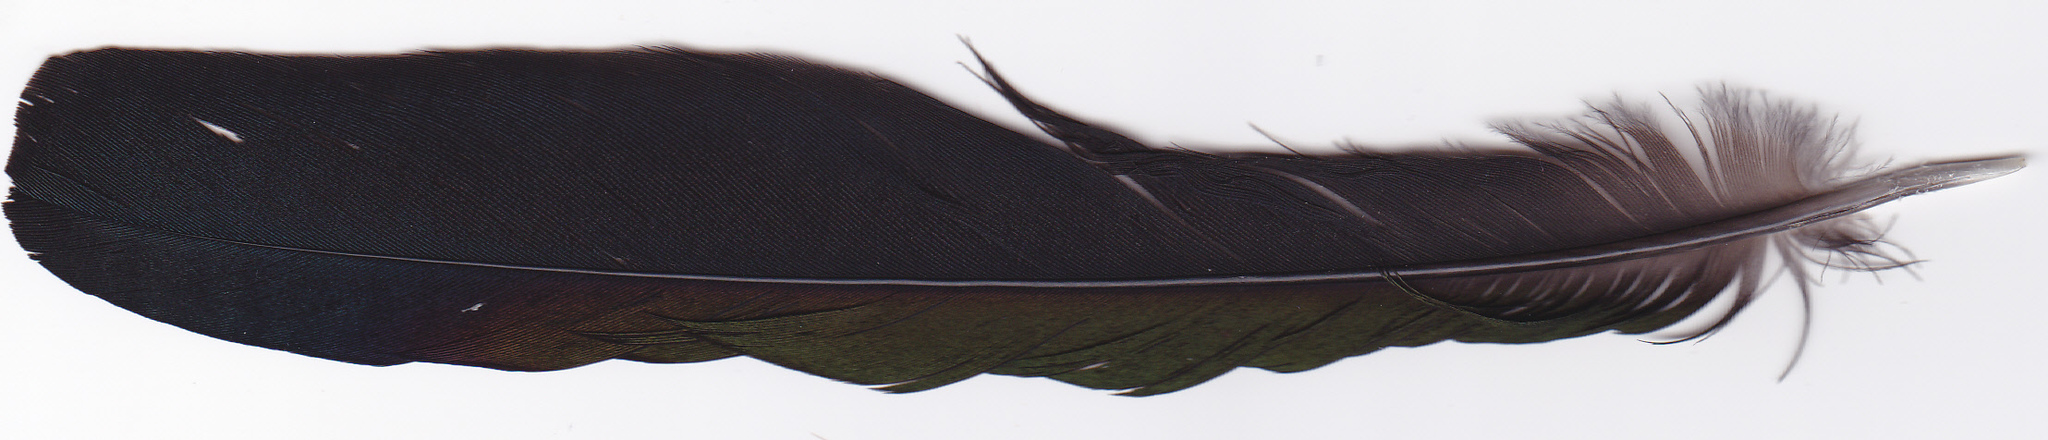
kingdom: Animalia
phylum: Chordata
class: Aves
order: Passeriformes
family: Corvidae
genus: Pica
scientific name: Pica pica
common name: Eurasian magpie
